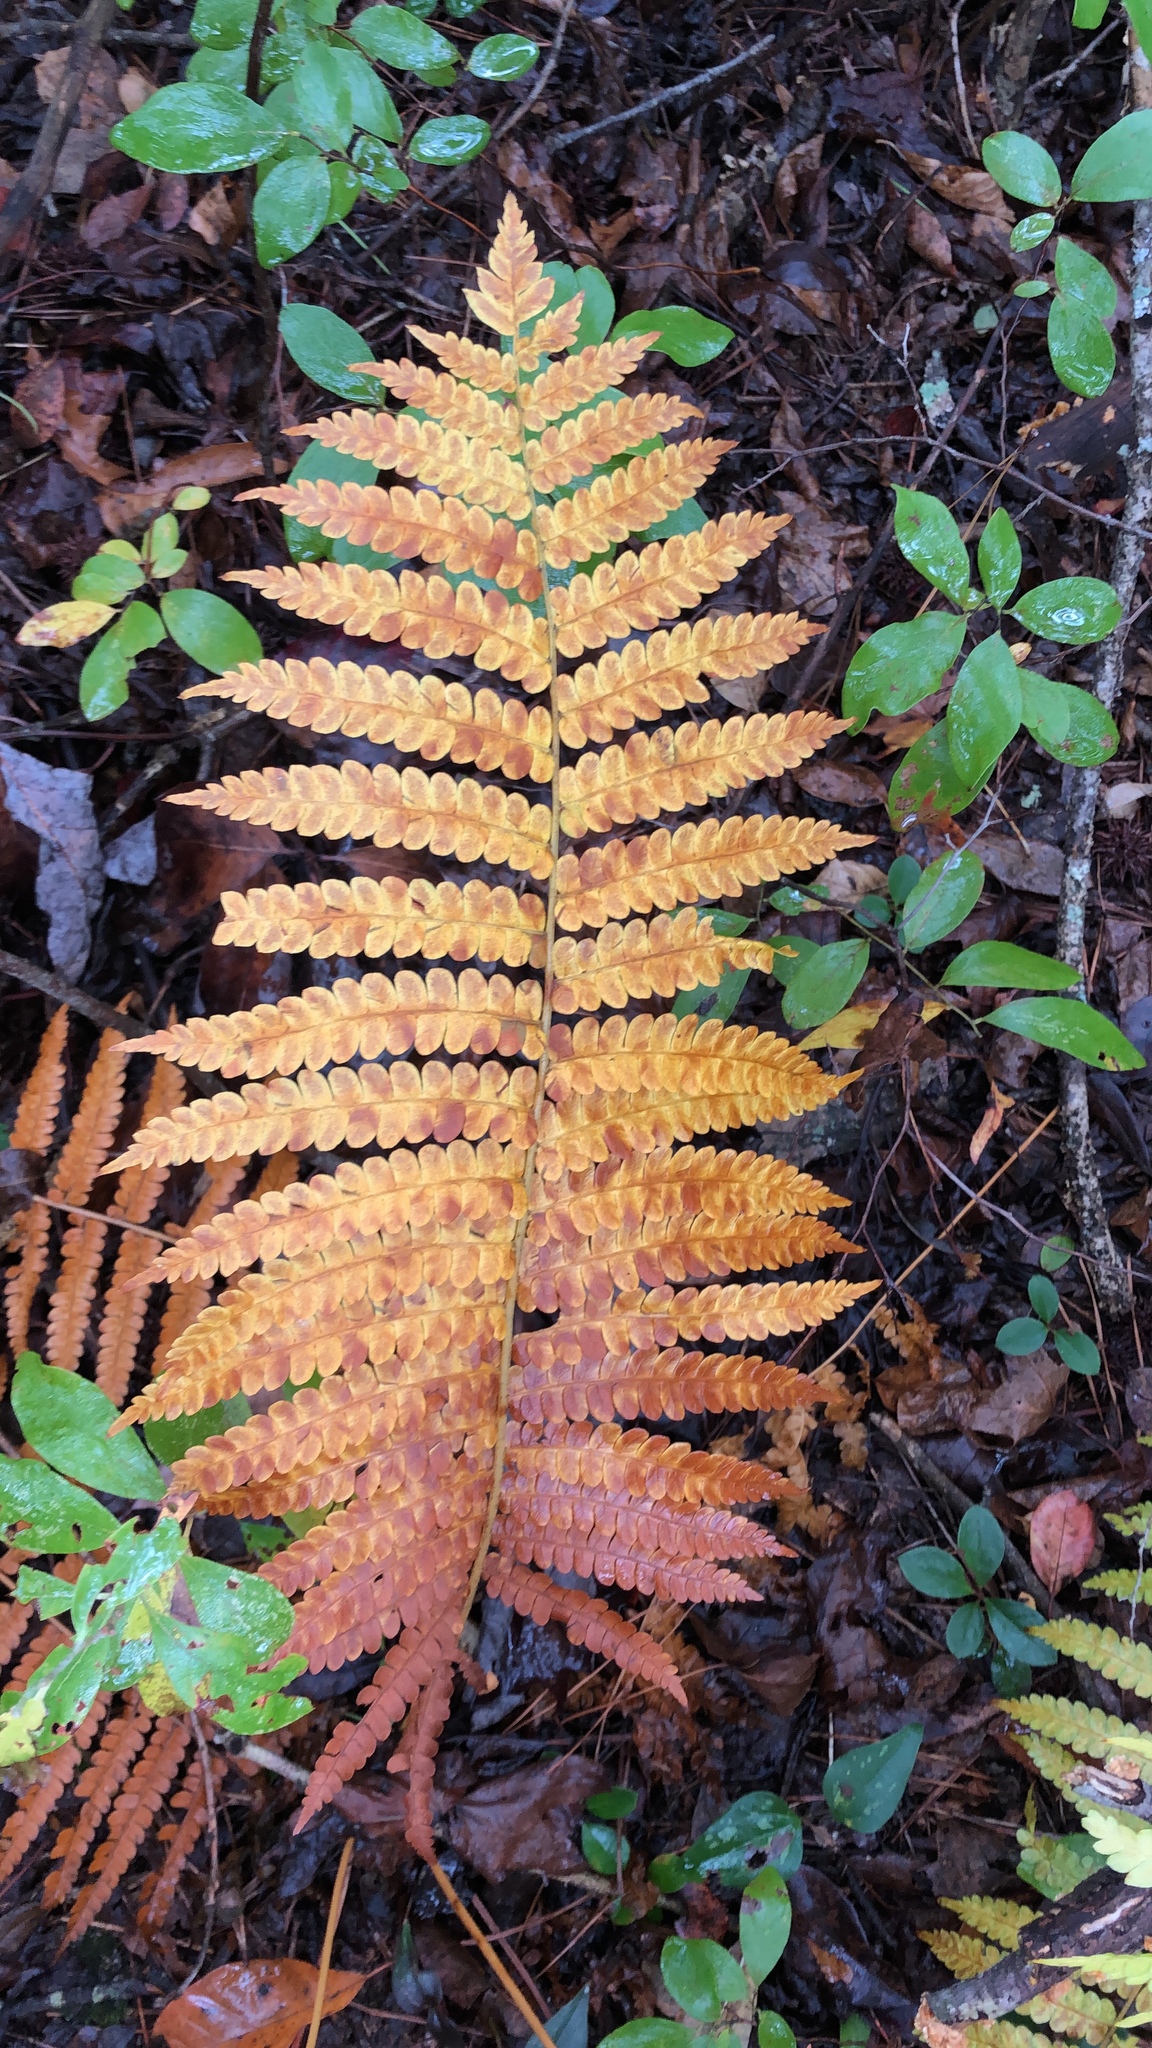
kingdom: Plantae
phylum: Tracheophyta
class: Polypodiopsida
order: Osmundales
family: Osmundaceae
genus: Osmundastrum
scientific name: Osmundastrum cinnamomeum
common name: Cinnamon fern
